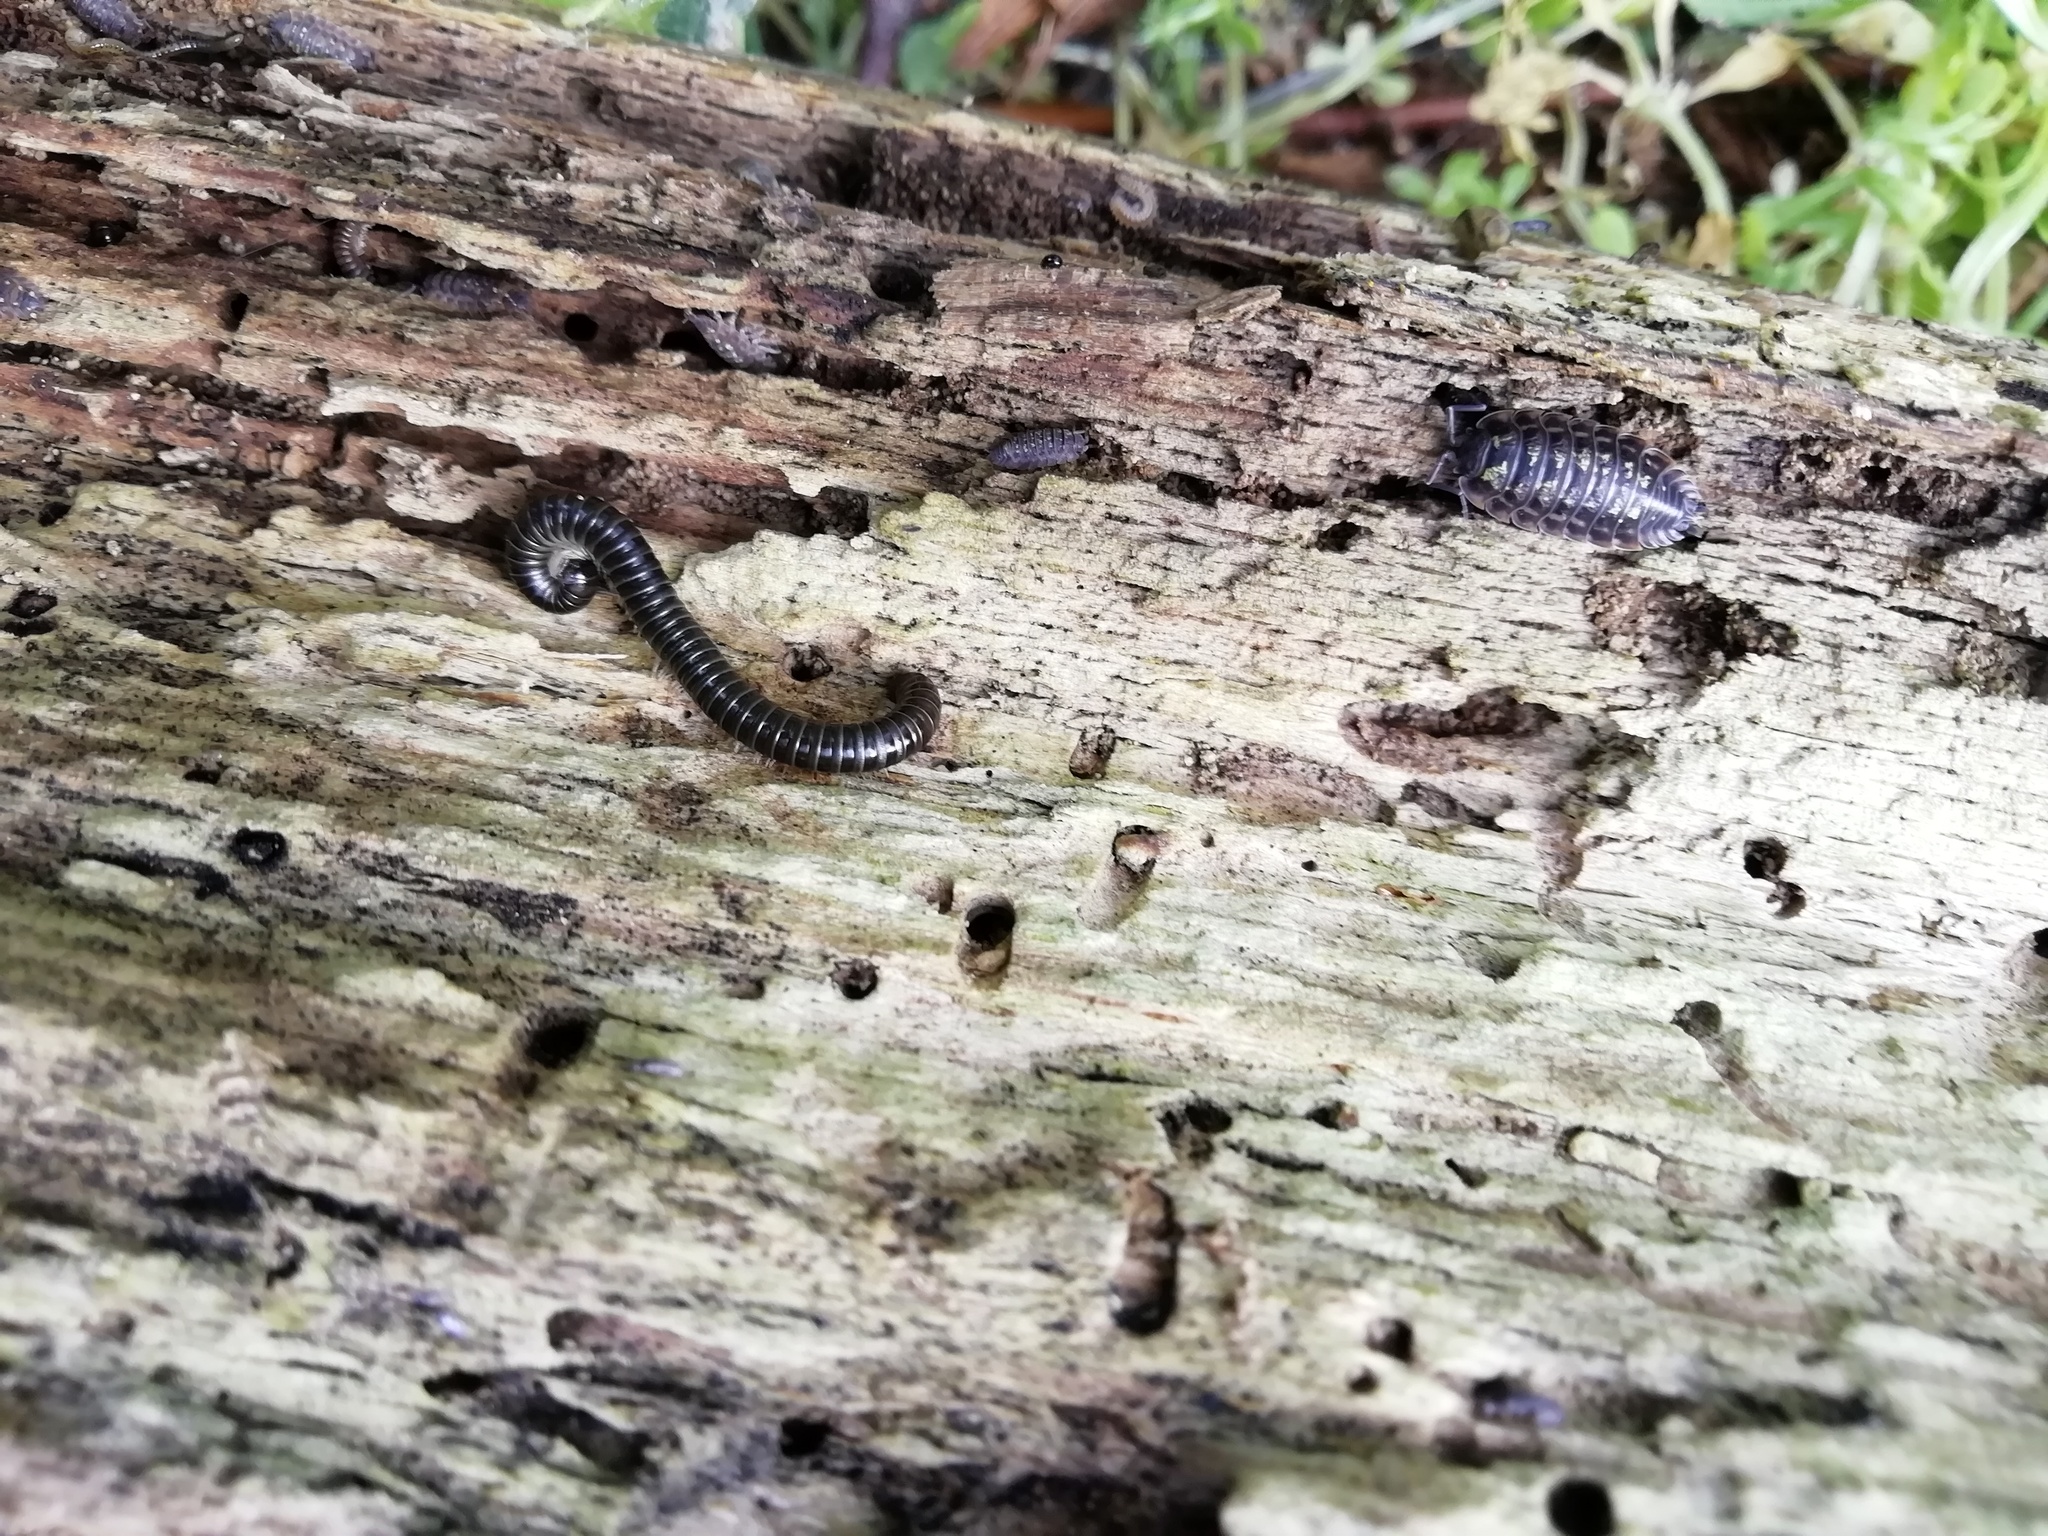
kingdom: Animalia
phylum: Arthropoda
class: Diplopoda
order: Julida
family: Julidae
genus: Tachypodoiulus
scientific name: Tachypodoiulus niger
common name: White-legged snake millipede
